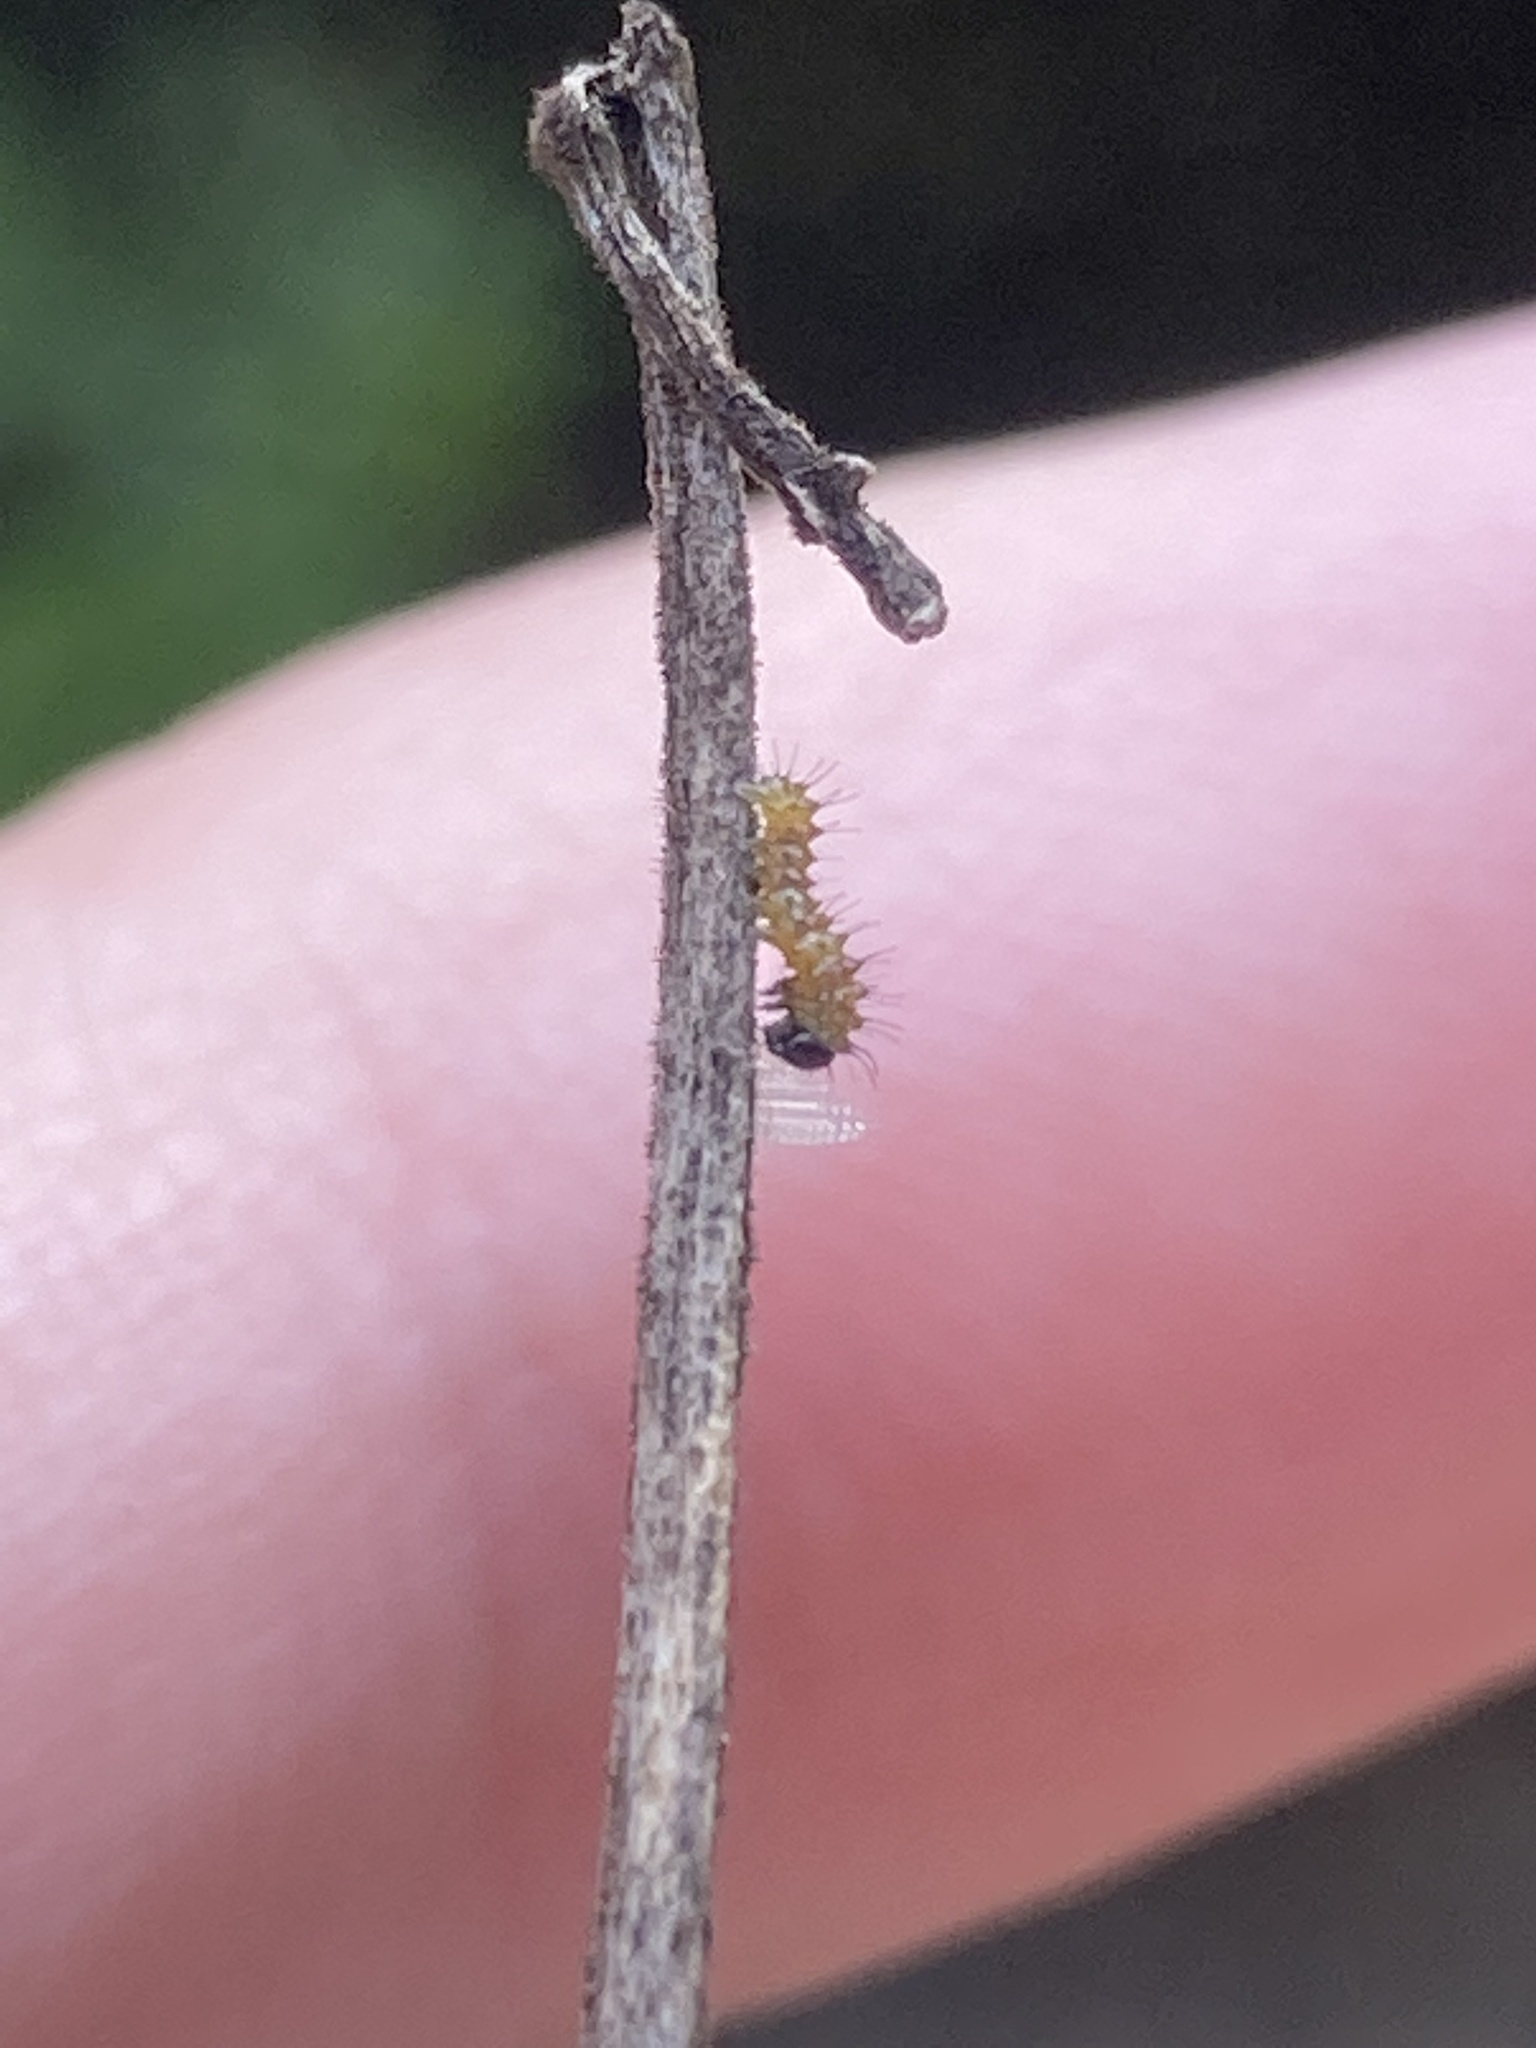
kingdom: Animalia
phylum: Arthropoda
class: Insecta
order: Lepidoptera
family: Nymphalidae
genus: Dione
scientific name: Dione vanillae
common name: Gulf fritillary
